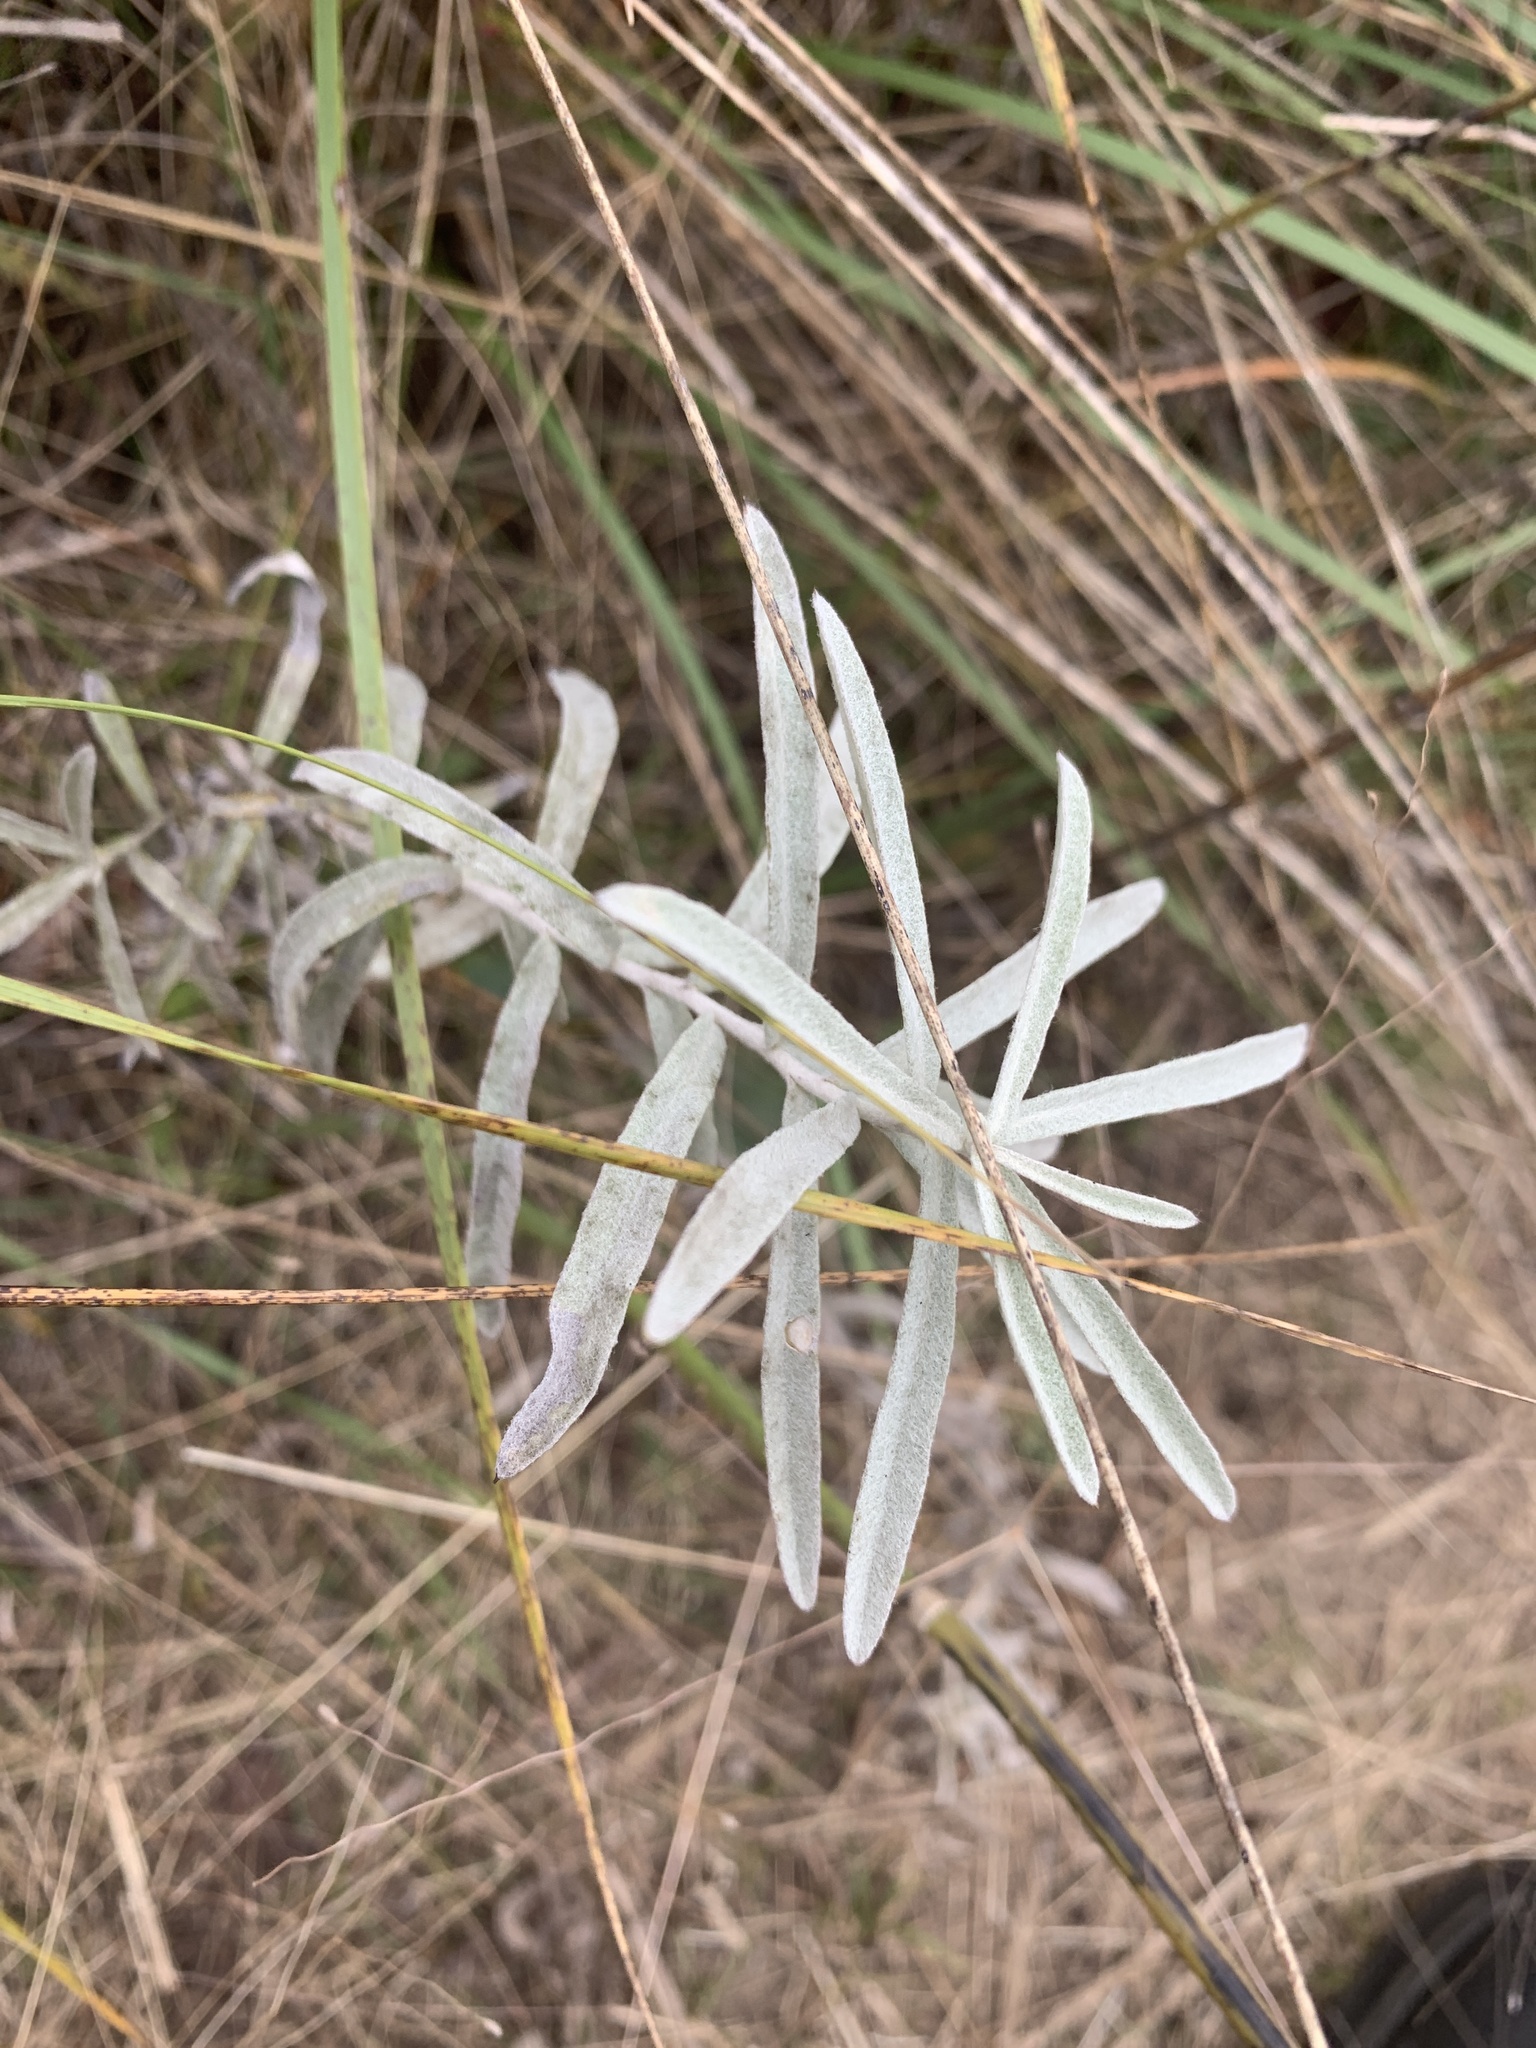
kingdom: Plantae
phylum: Tracheophyta
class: Magnoliopsida
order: Asterales
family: Asteraceae
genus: Artemisia
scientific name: Artemisia ludoviciana
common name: Western mugwort
